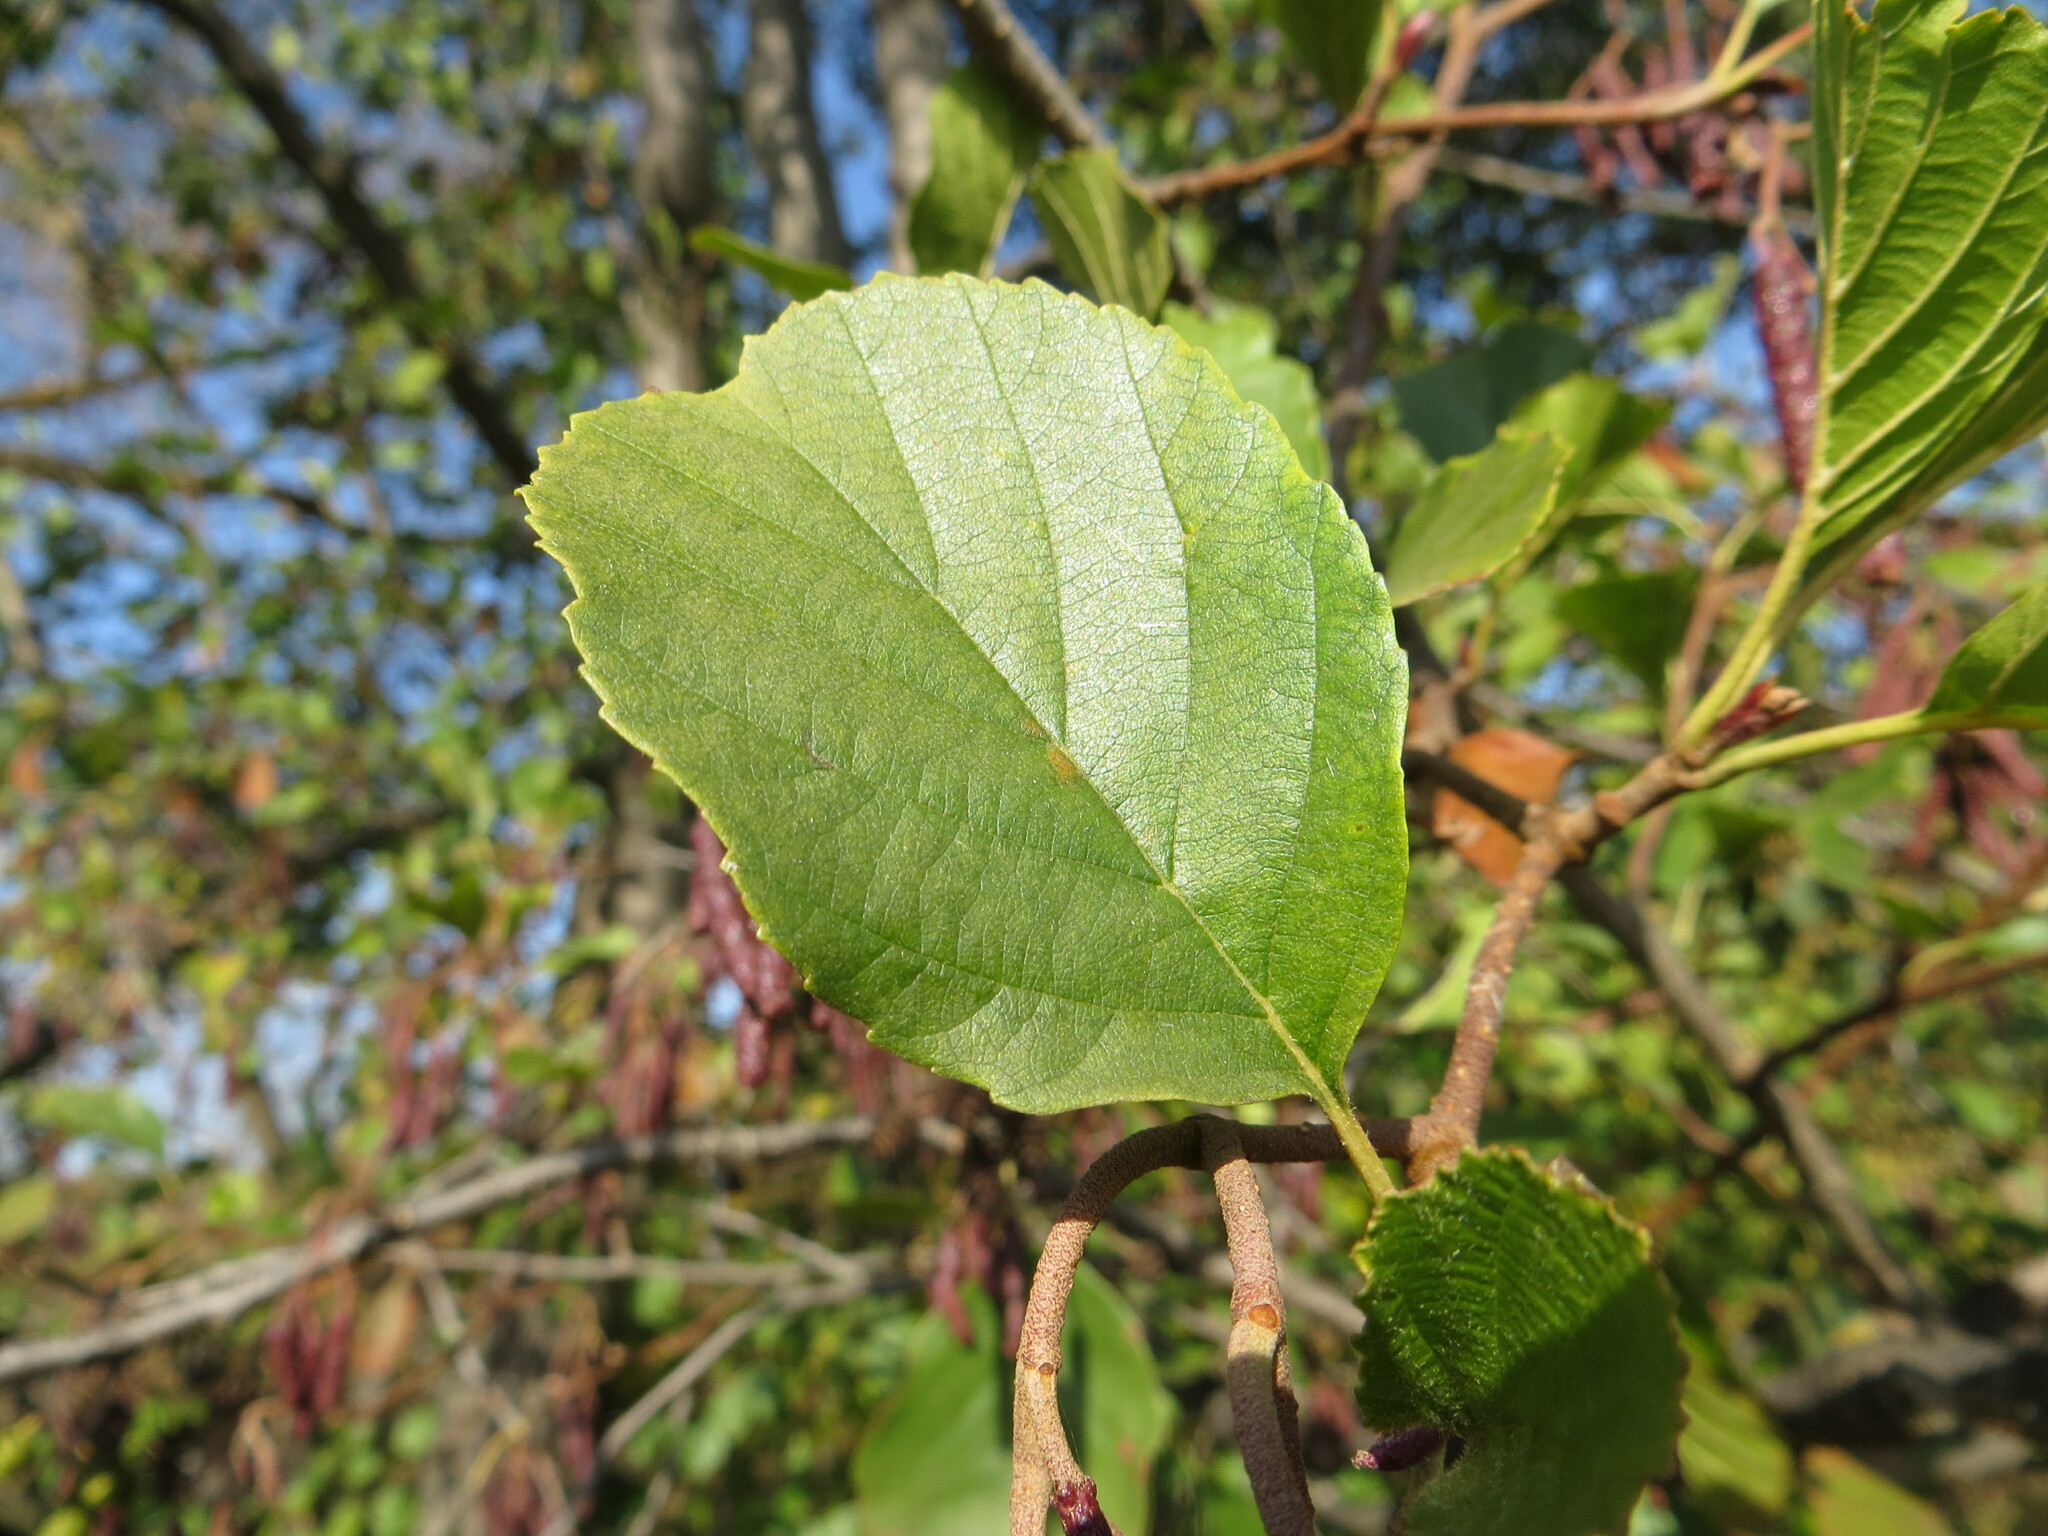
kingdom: Plantae
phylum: Tracheophyta
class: Magnoliopsida
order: Fagales
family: Betulaceae
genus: Alnus
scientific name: Alnus glutinosa
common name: Black alder
